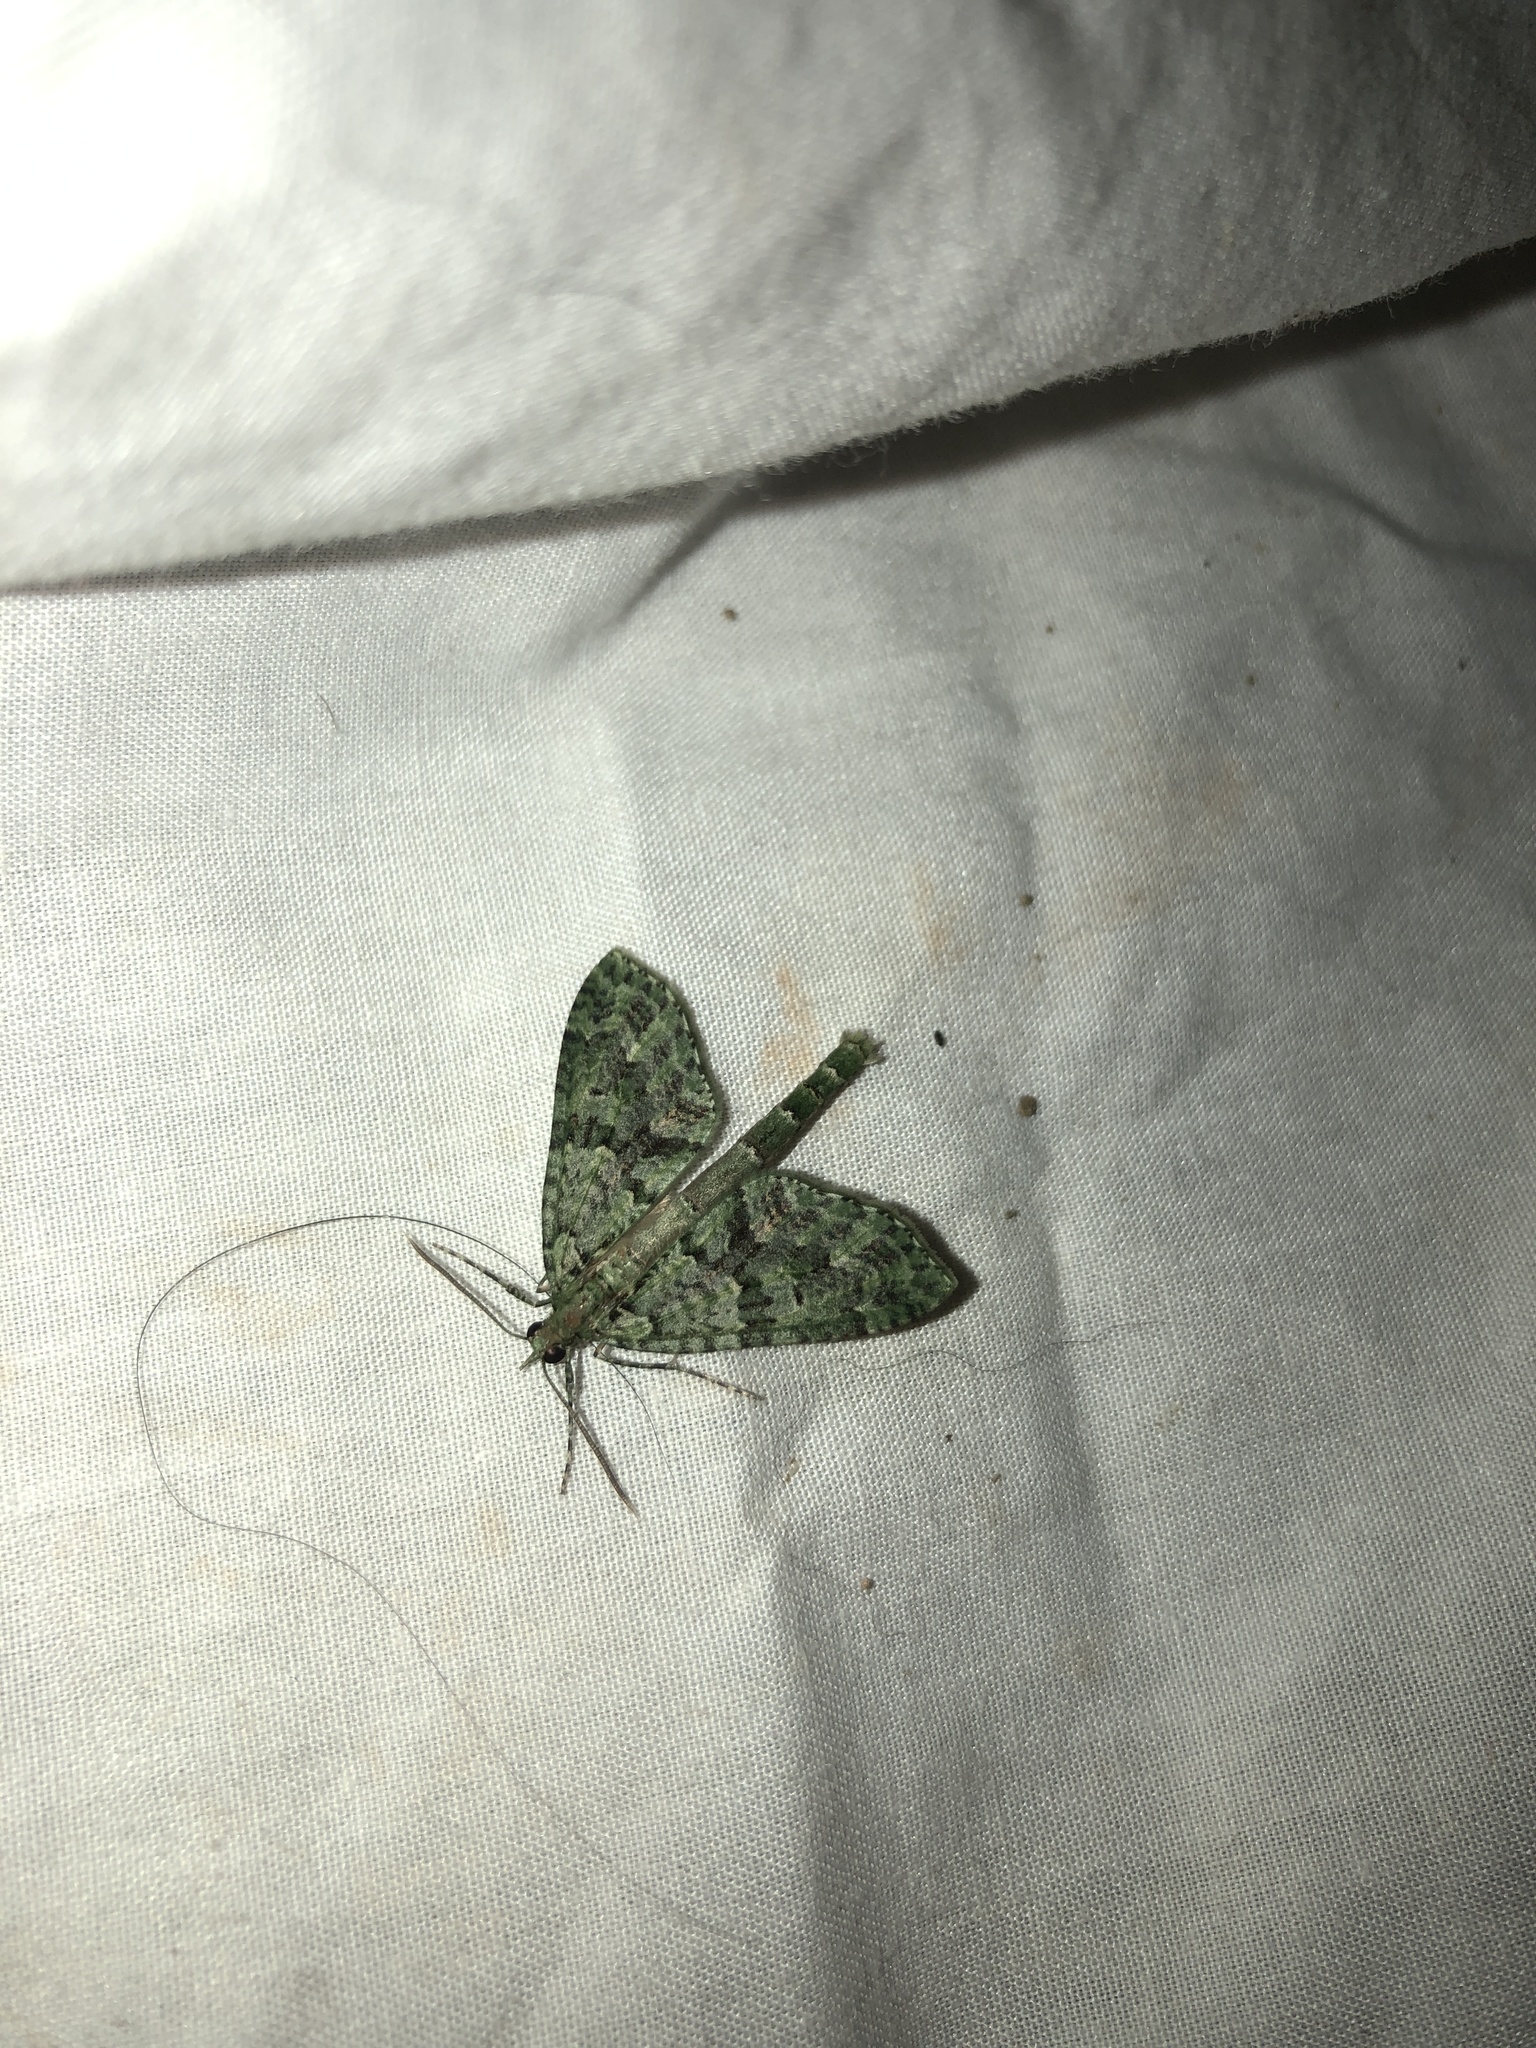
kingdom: Animalia
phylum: Arthropoda
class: Insecta
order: Lepidoptera
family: Geometridae
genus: Tatosoma
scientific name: Tatosoma tipulata
